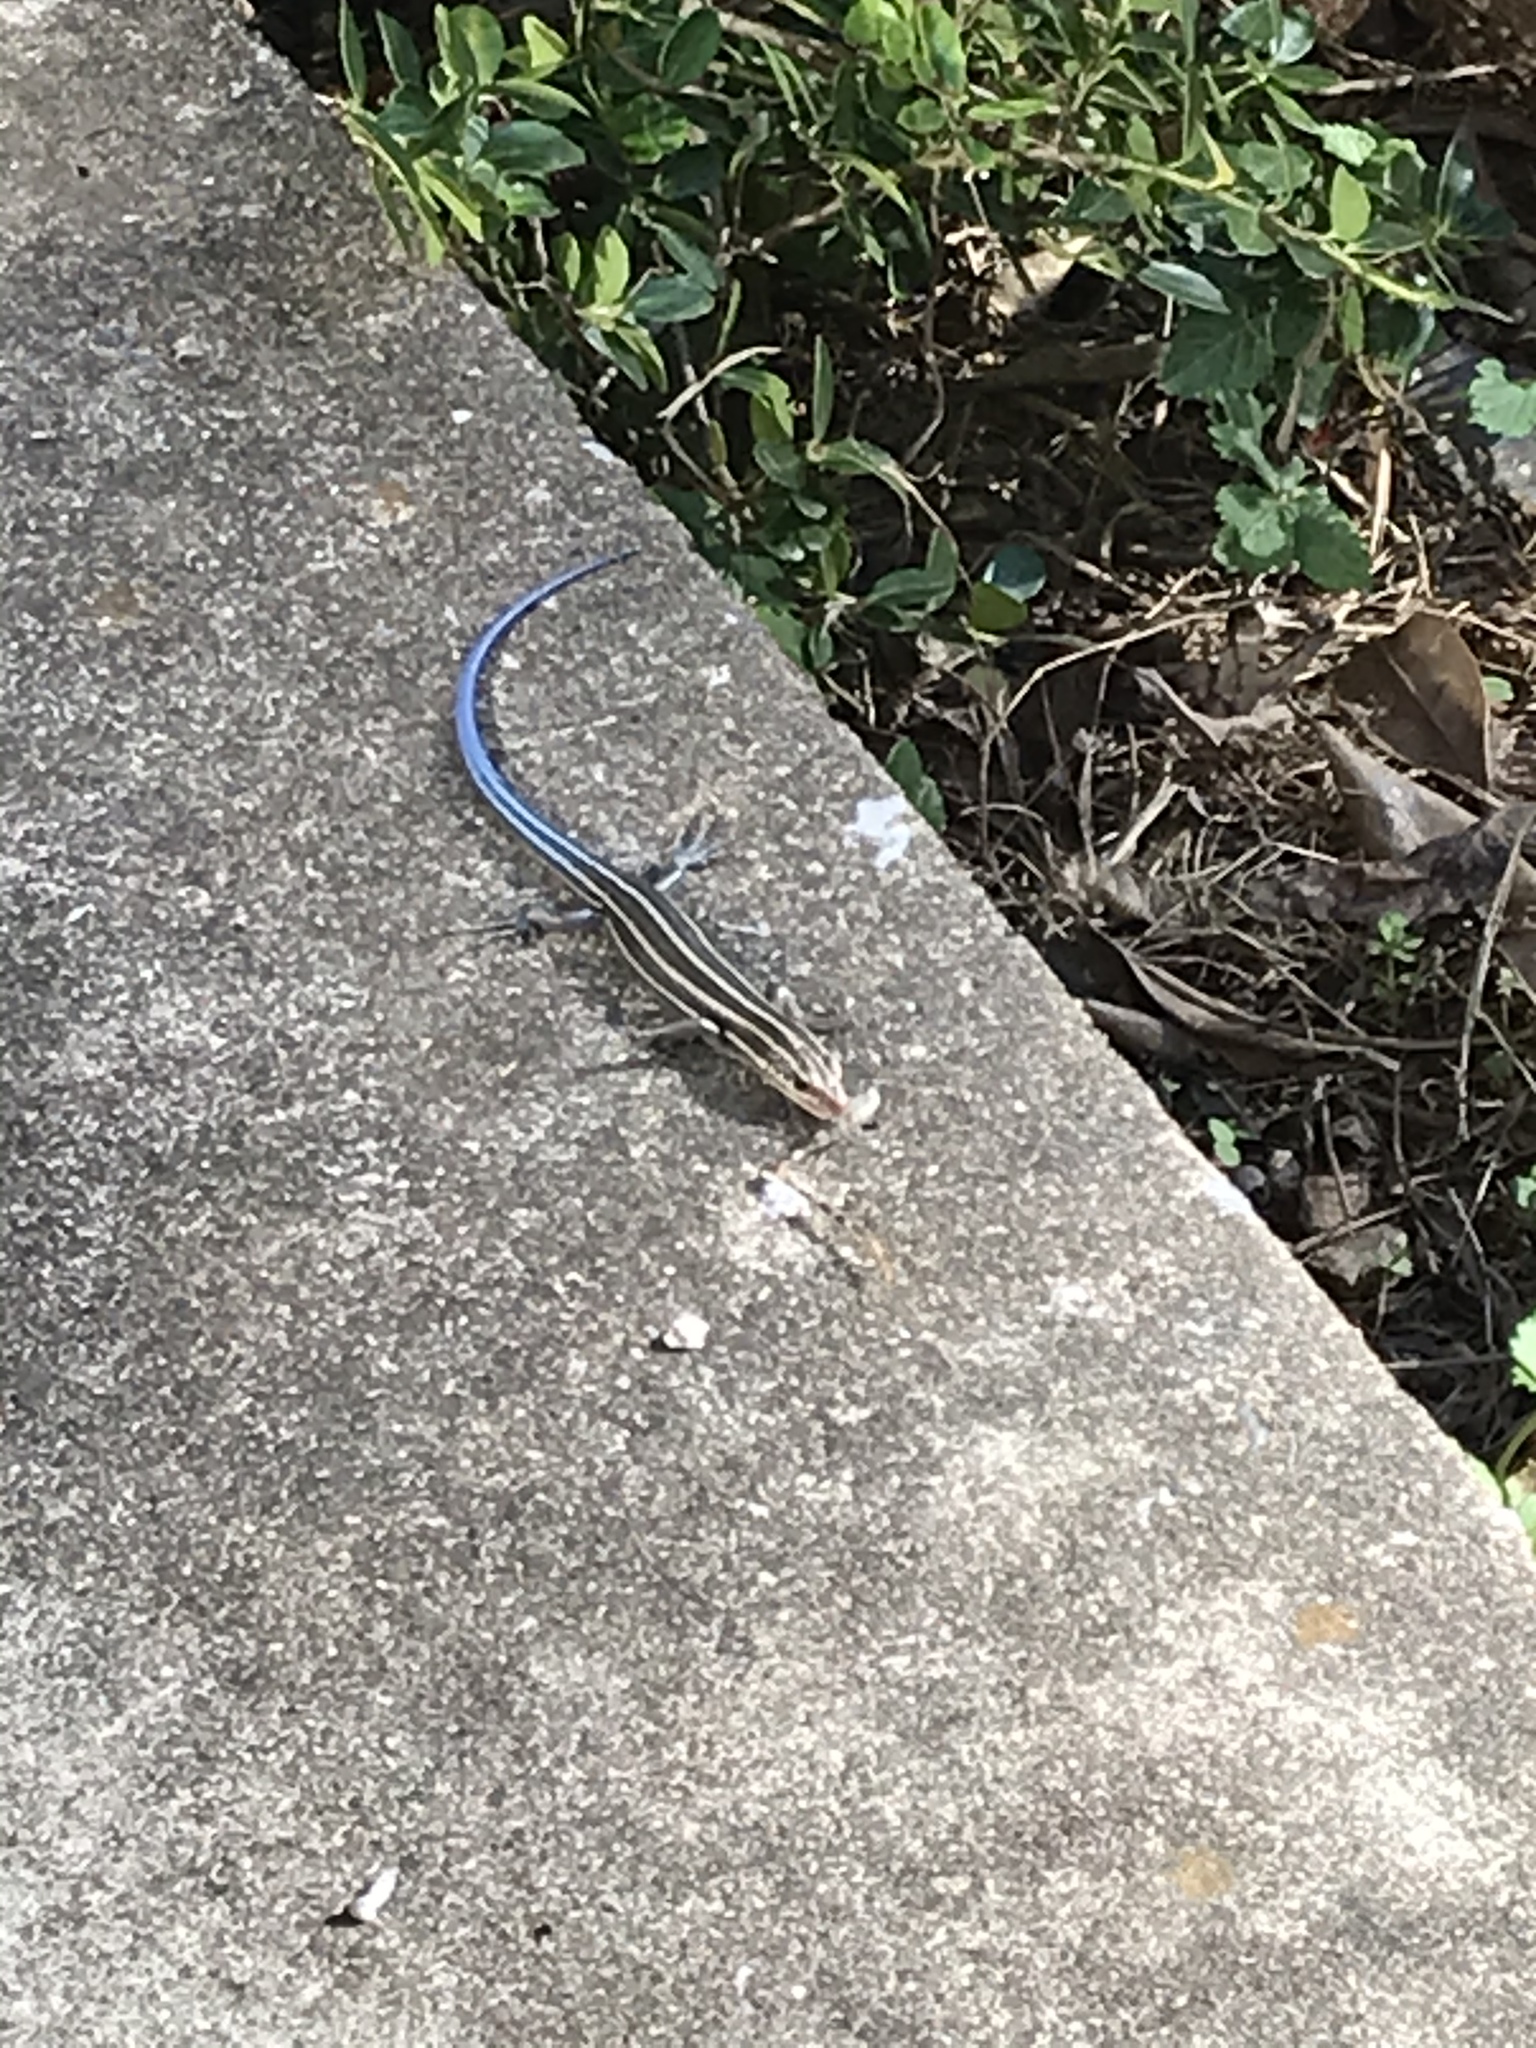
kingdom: Animalia
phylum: Chordata
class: Squamata
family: Scincidae
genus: Plestiodon
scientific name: Plestiodon fasciatus
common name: Five-lined skink
